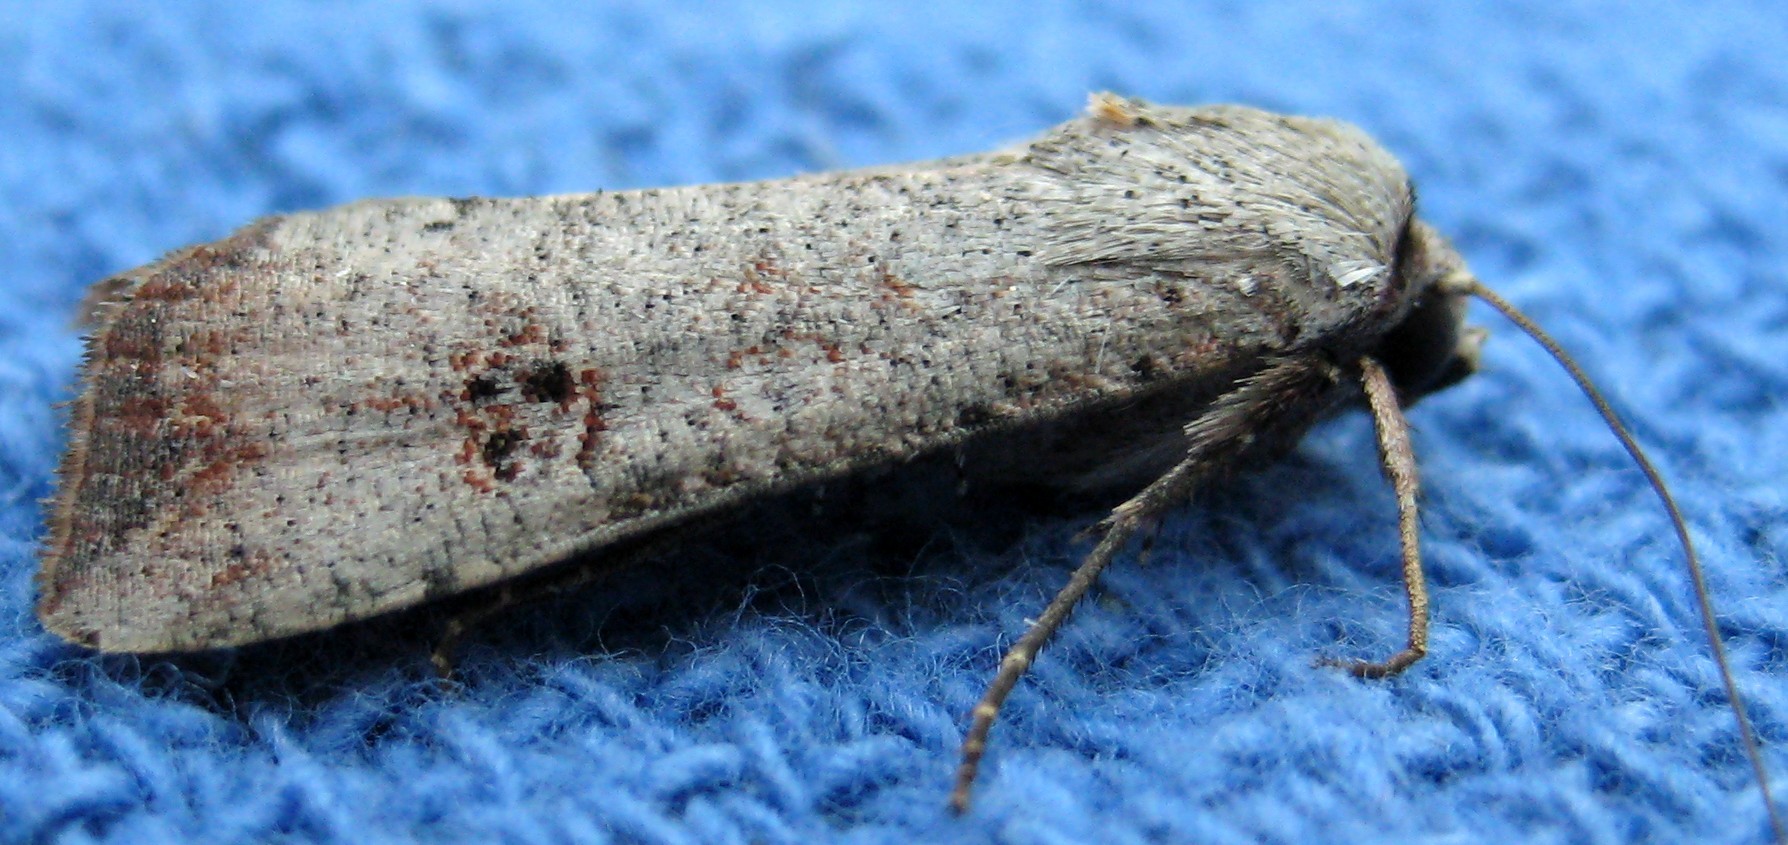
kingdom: Animalia
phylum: Arthropoda
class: Insecta
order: Lepidoptera
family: Noctuidae
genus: Anicla
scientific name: Anicla infecta
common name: Green cutworm
